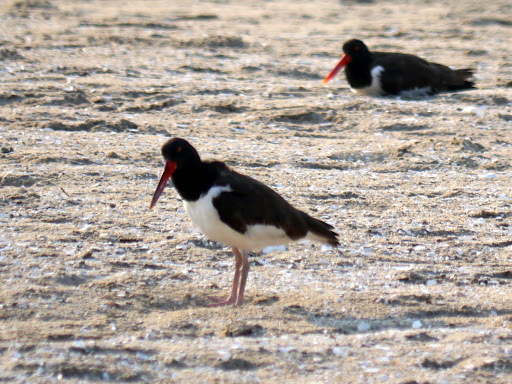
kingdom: Animalia
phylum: Chordata
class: Aves
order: Charadriiformes
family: Haematopodidae
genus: Haematopus
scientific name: Haematopus palliatus
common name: American oystercatcher
